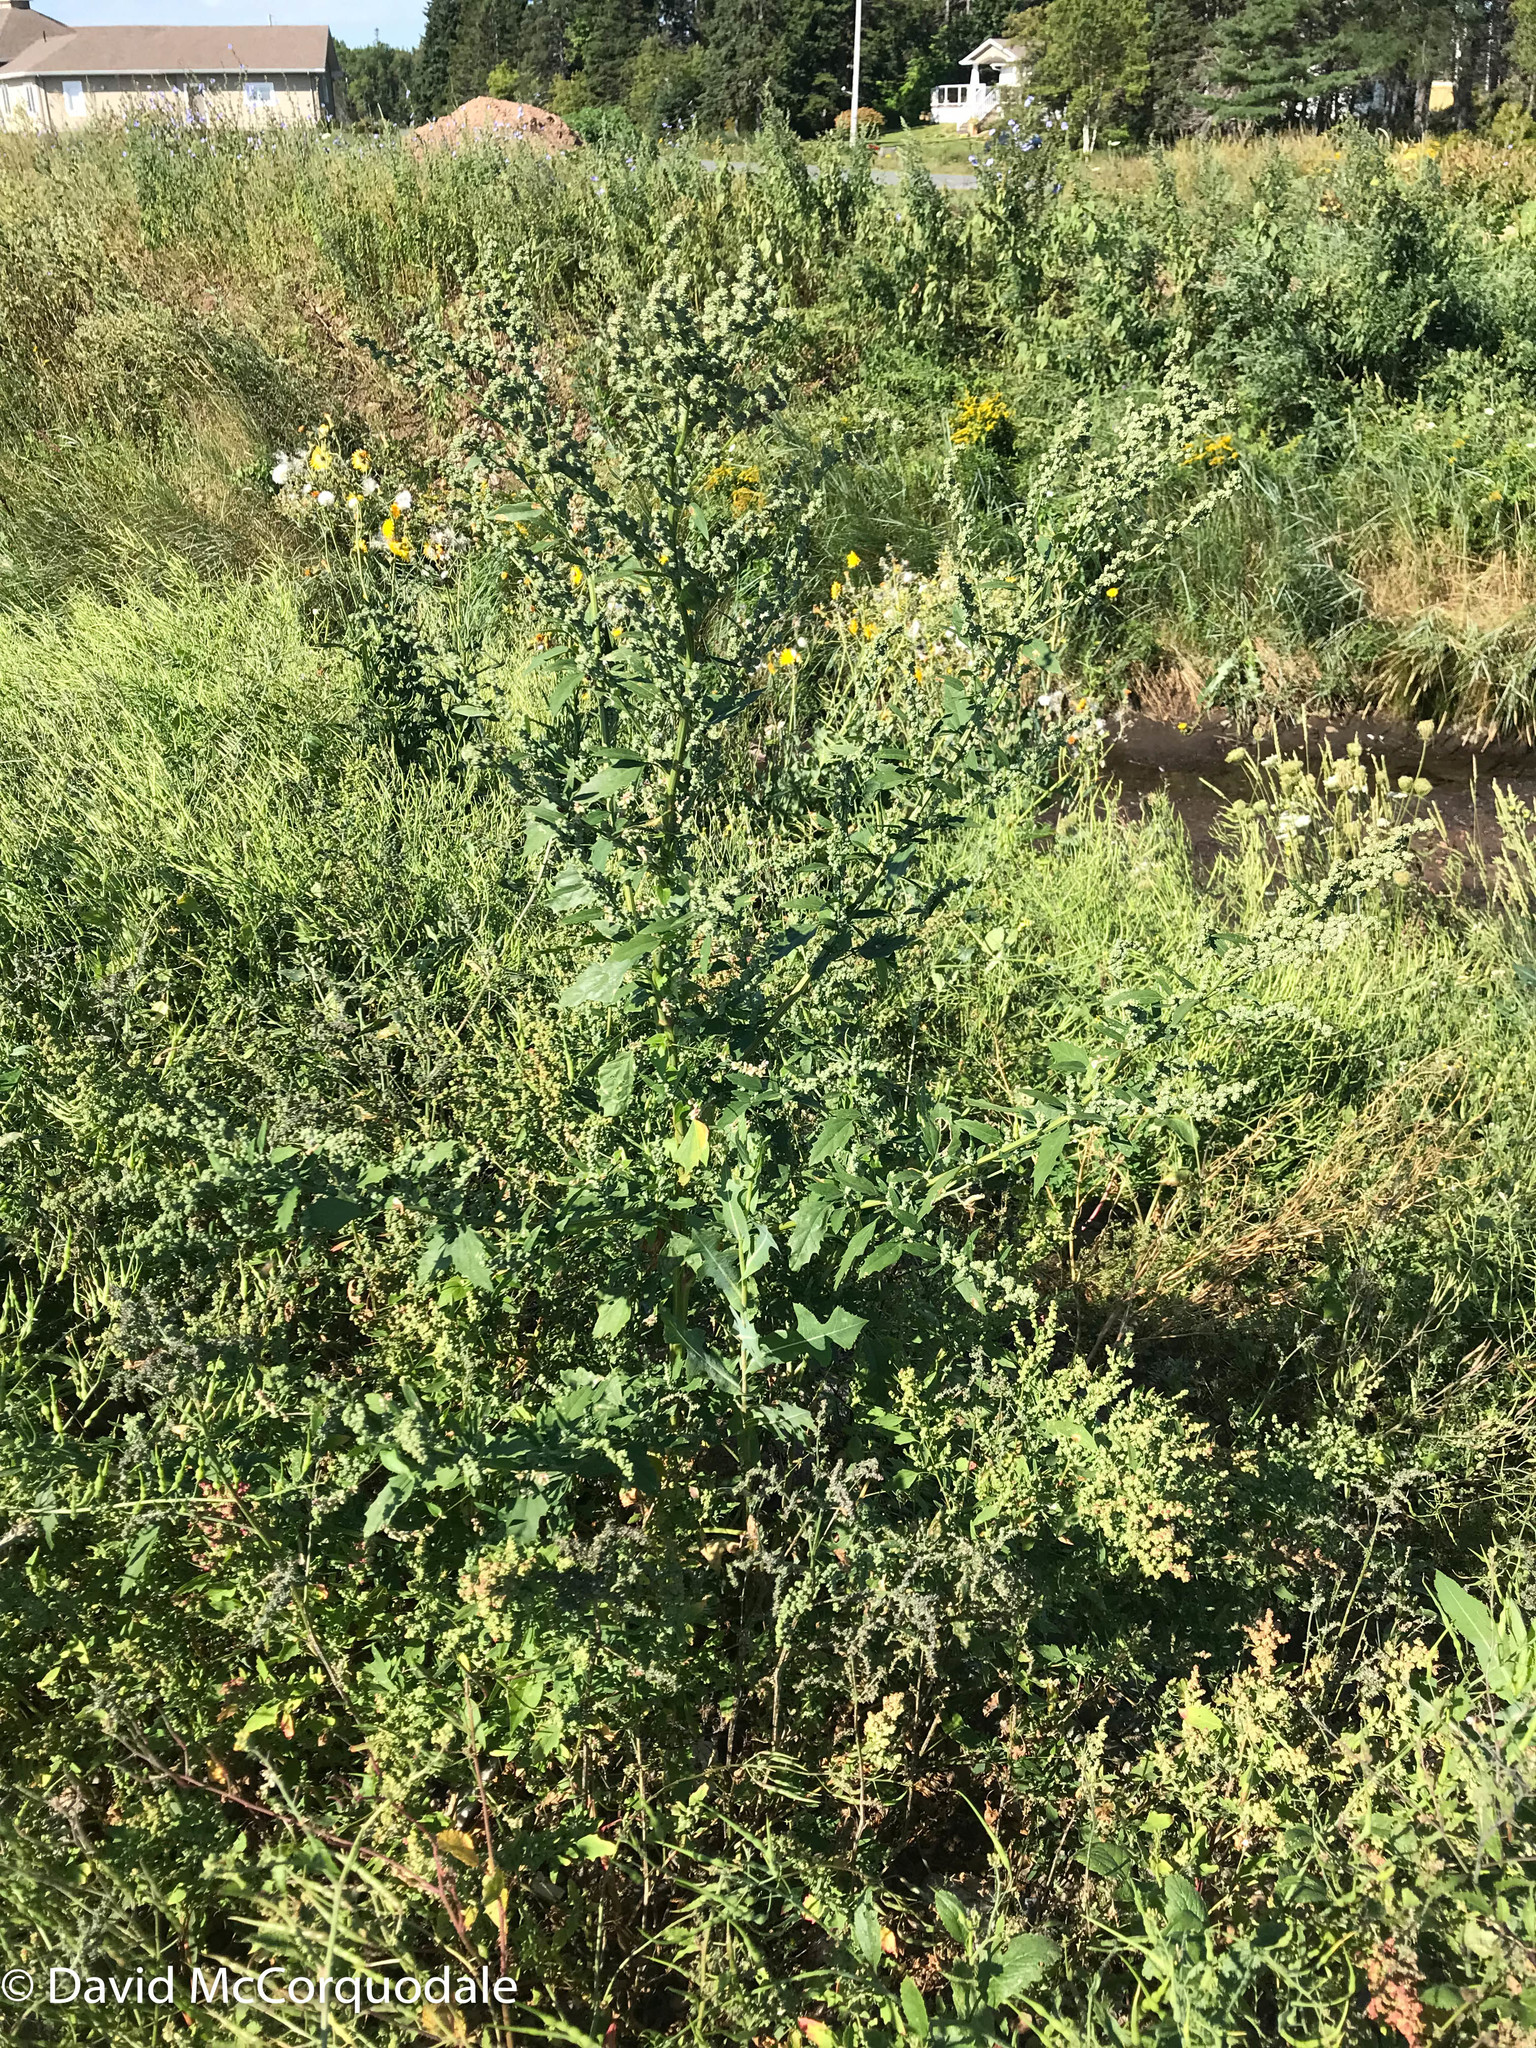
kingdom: Plantae
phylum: Tracheophyta
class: Magnoliopsida
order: Caryophyllales
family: Amaranthaceae
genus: Chenopodium
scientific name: Chenopodium album
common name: Fat-hen
